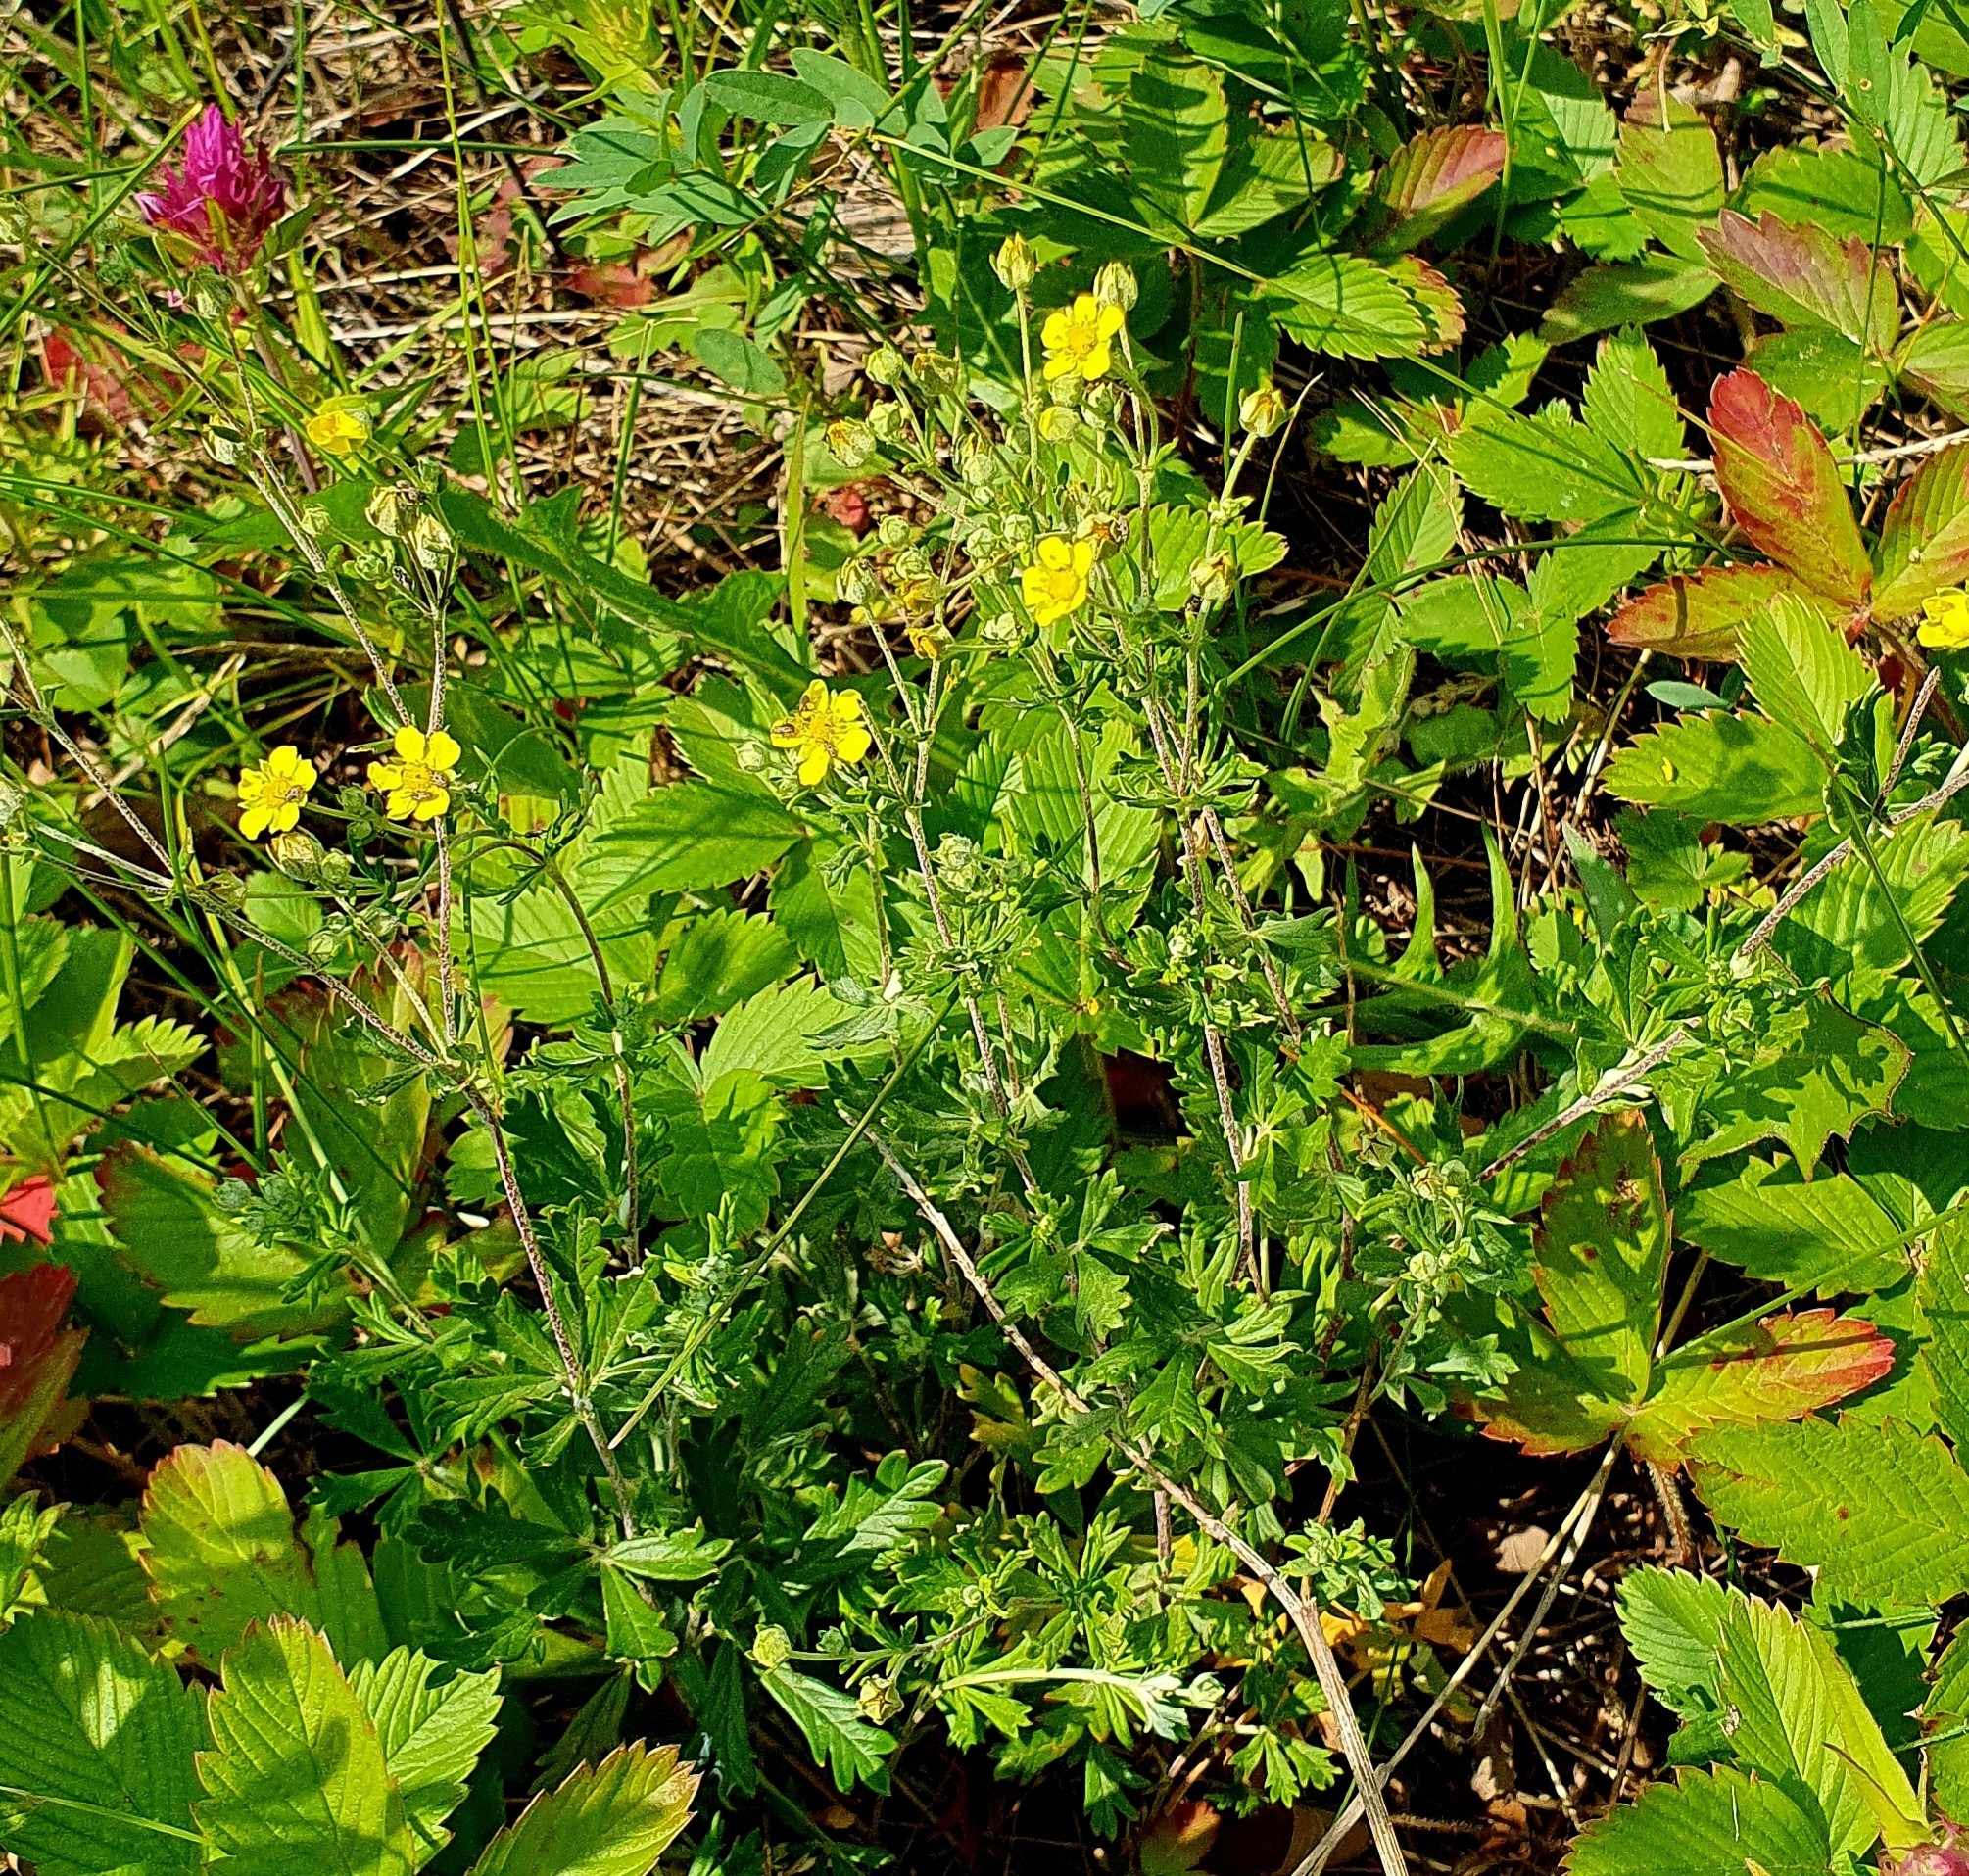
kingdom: Plantae
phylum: Tracheophyta
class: Magnoliopsida
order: Rosales
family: Rosaceae
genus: Potentilla
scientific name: Potentilla argentea
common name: Hoary cinquefoil
